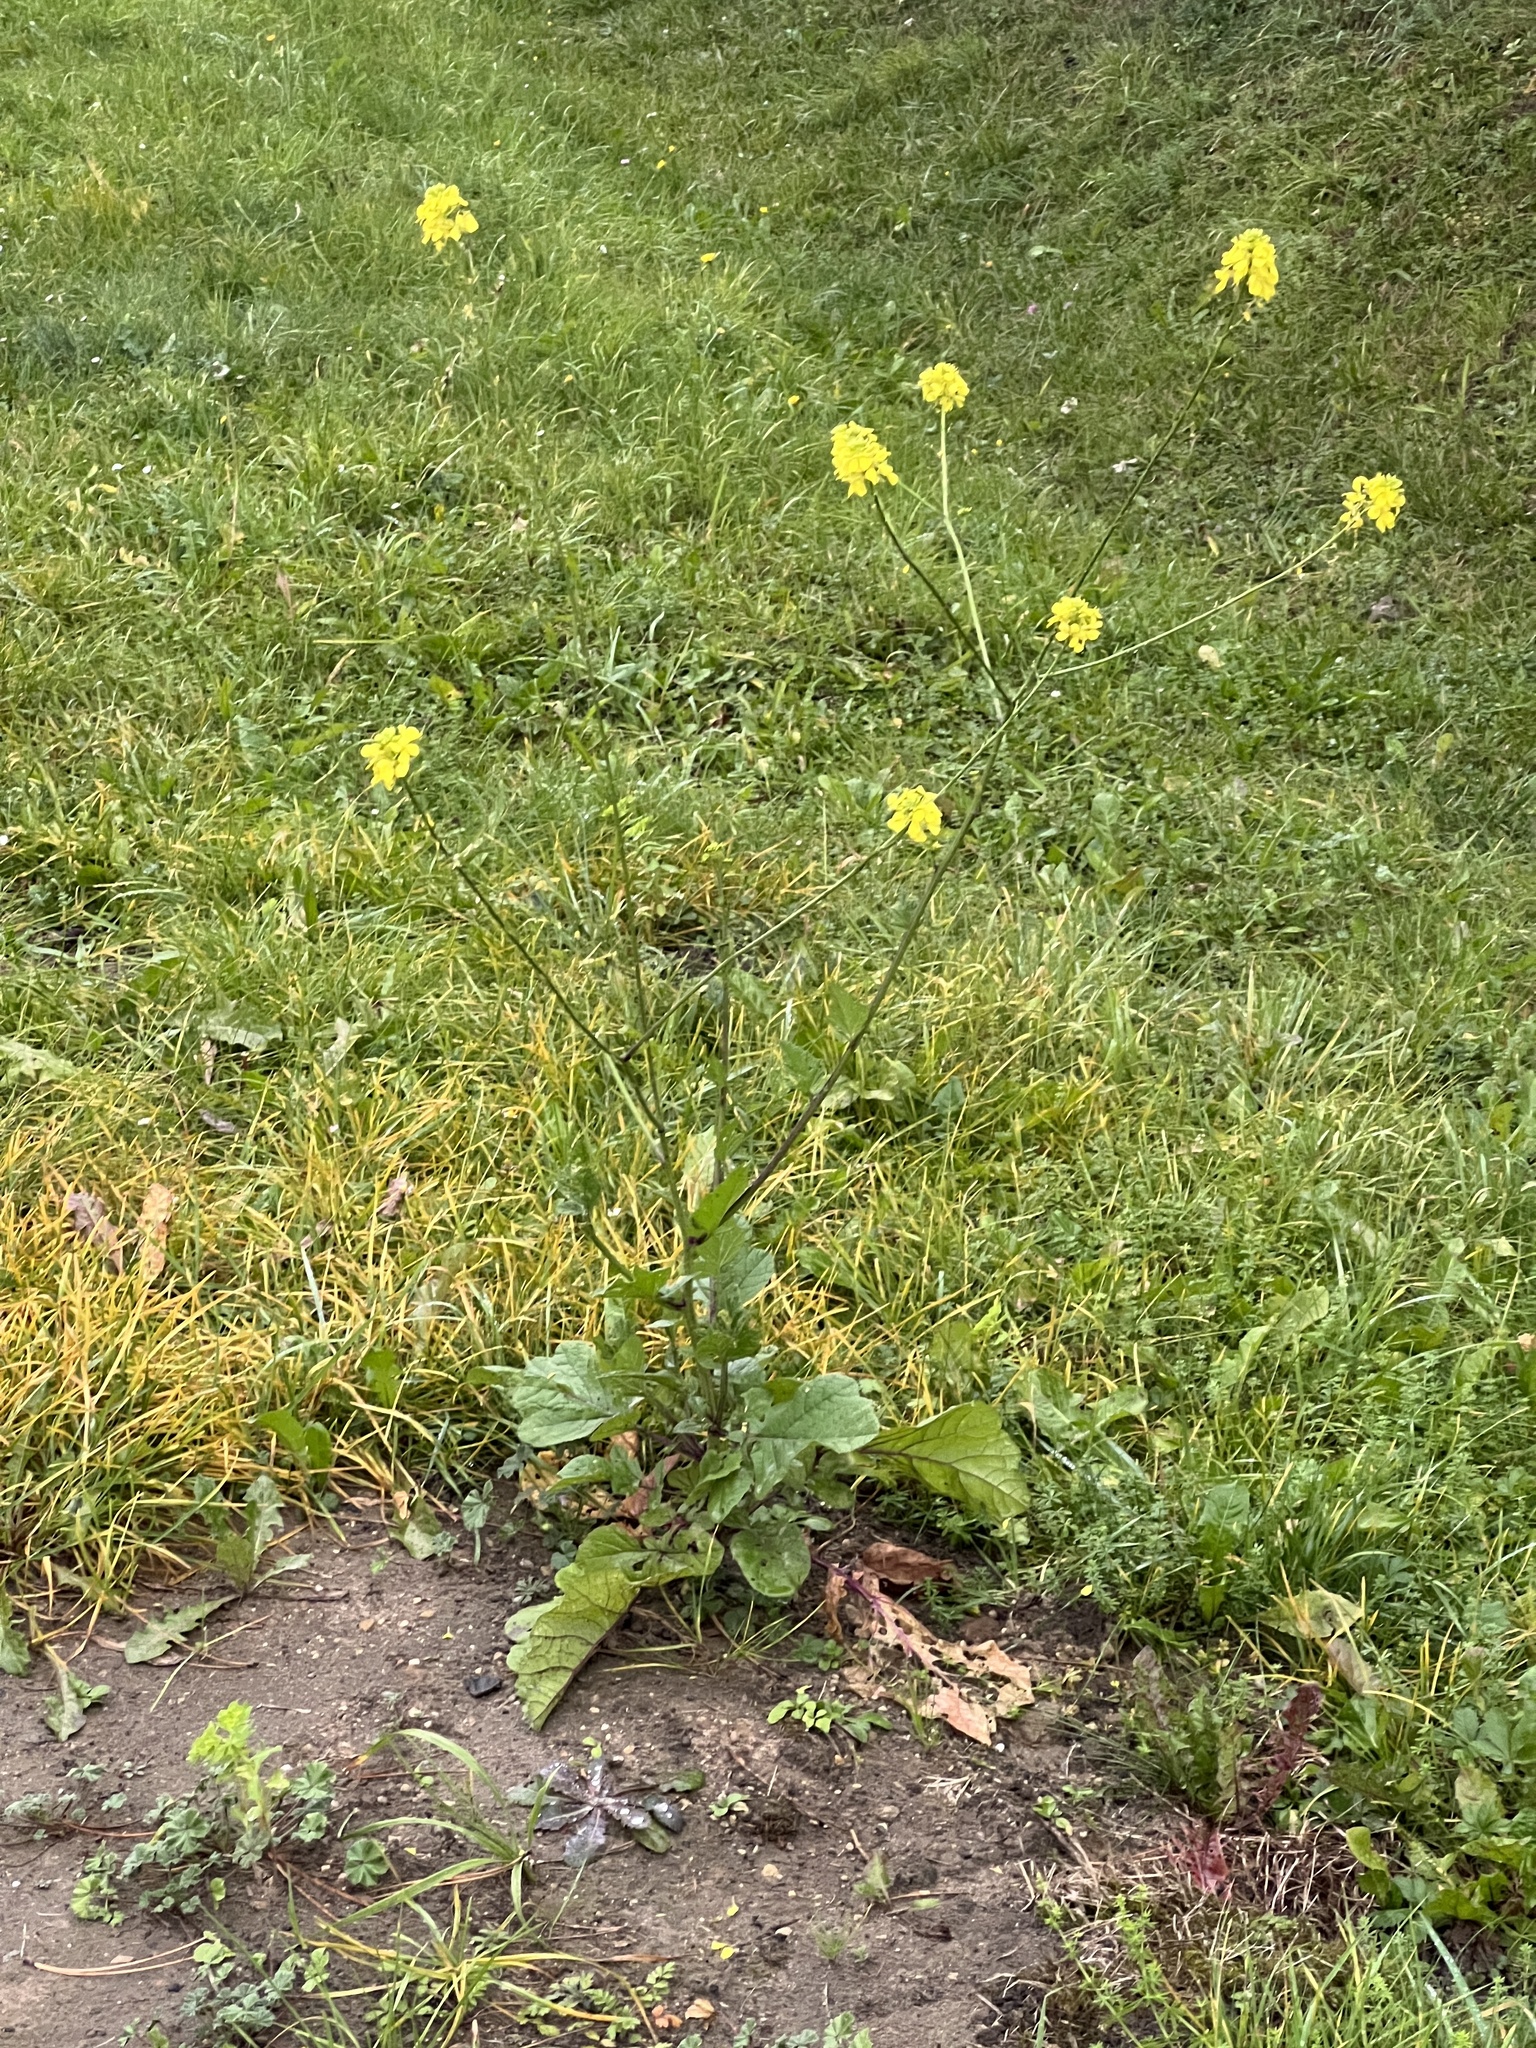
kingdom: Plantae
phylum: Tracheophyta
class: Magnoliopsida
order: Brassicales
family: Brassicaceae
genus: Sinapis
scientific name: Sinapis arvensis
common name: Charlock
